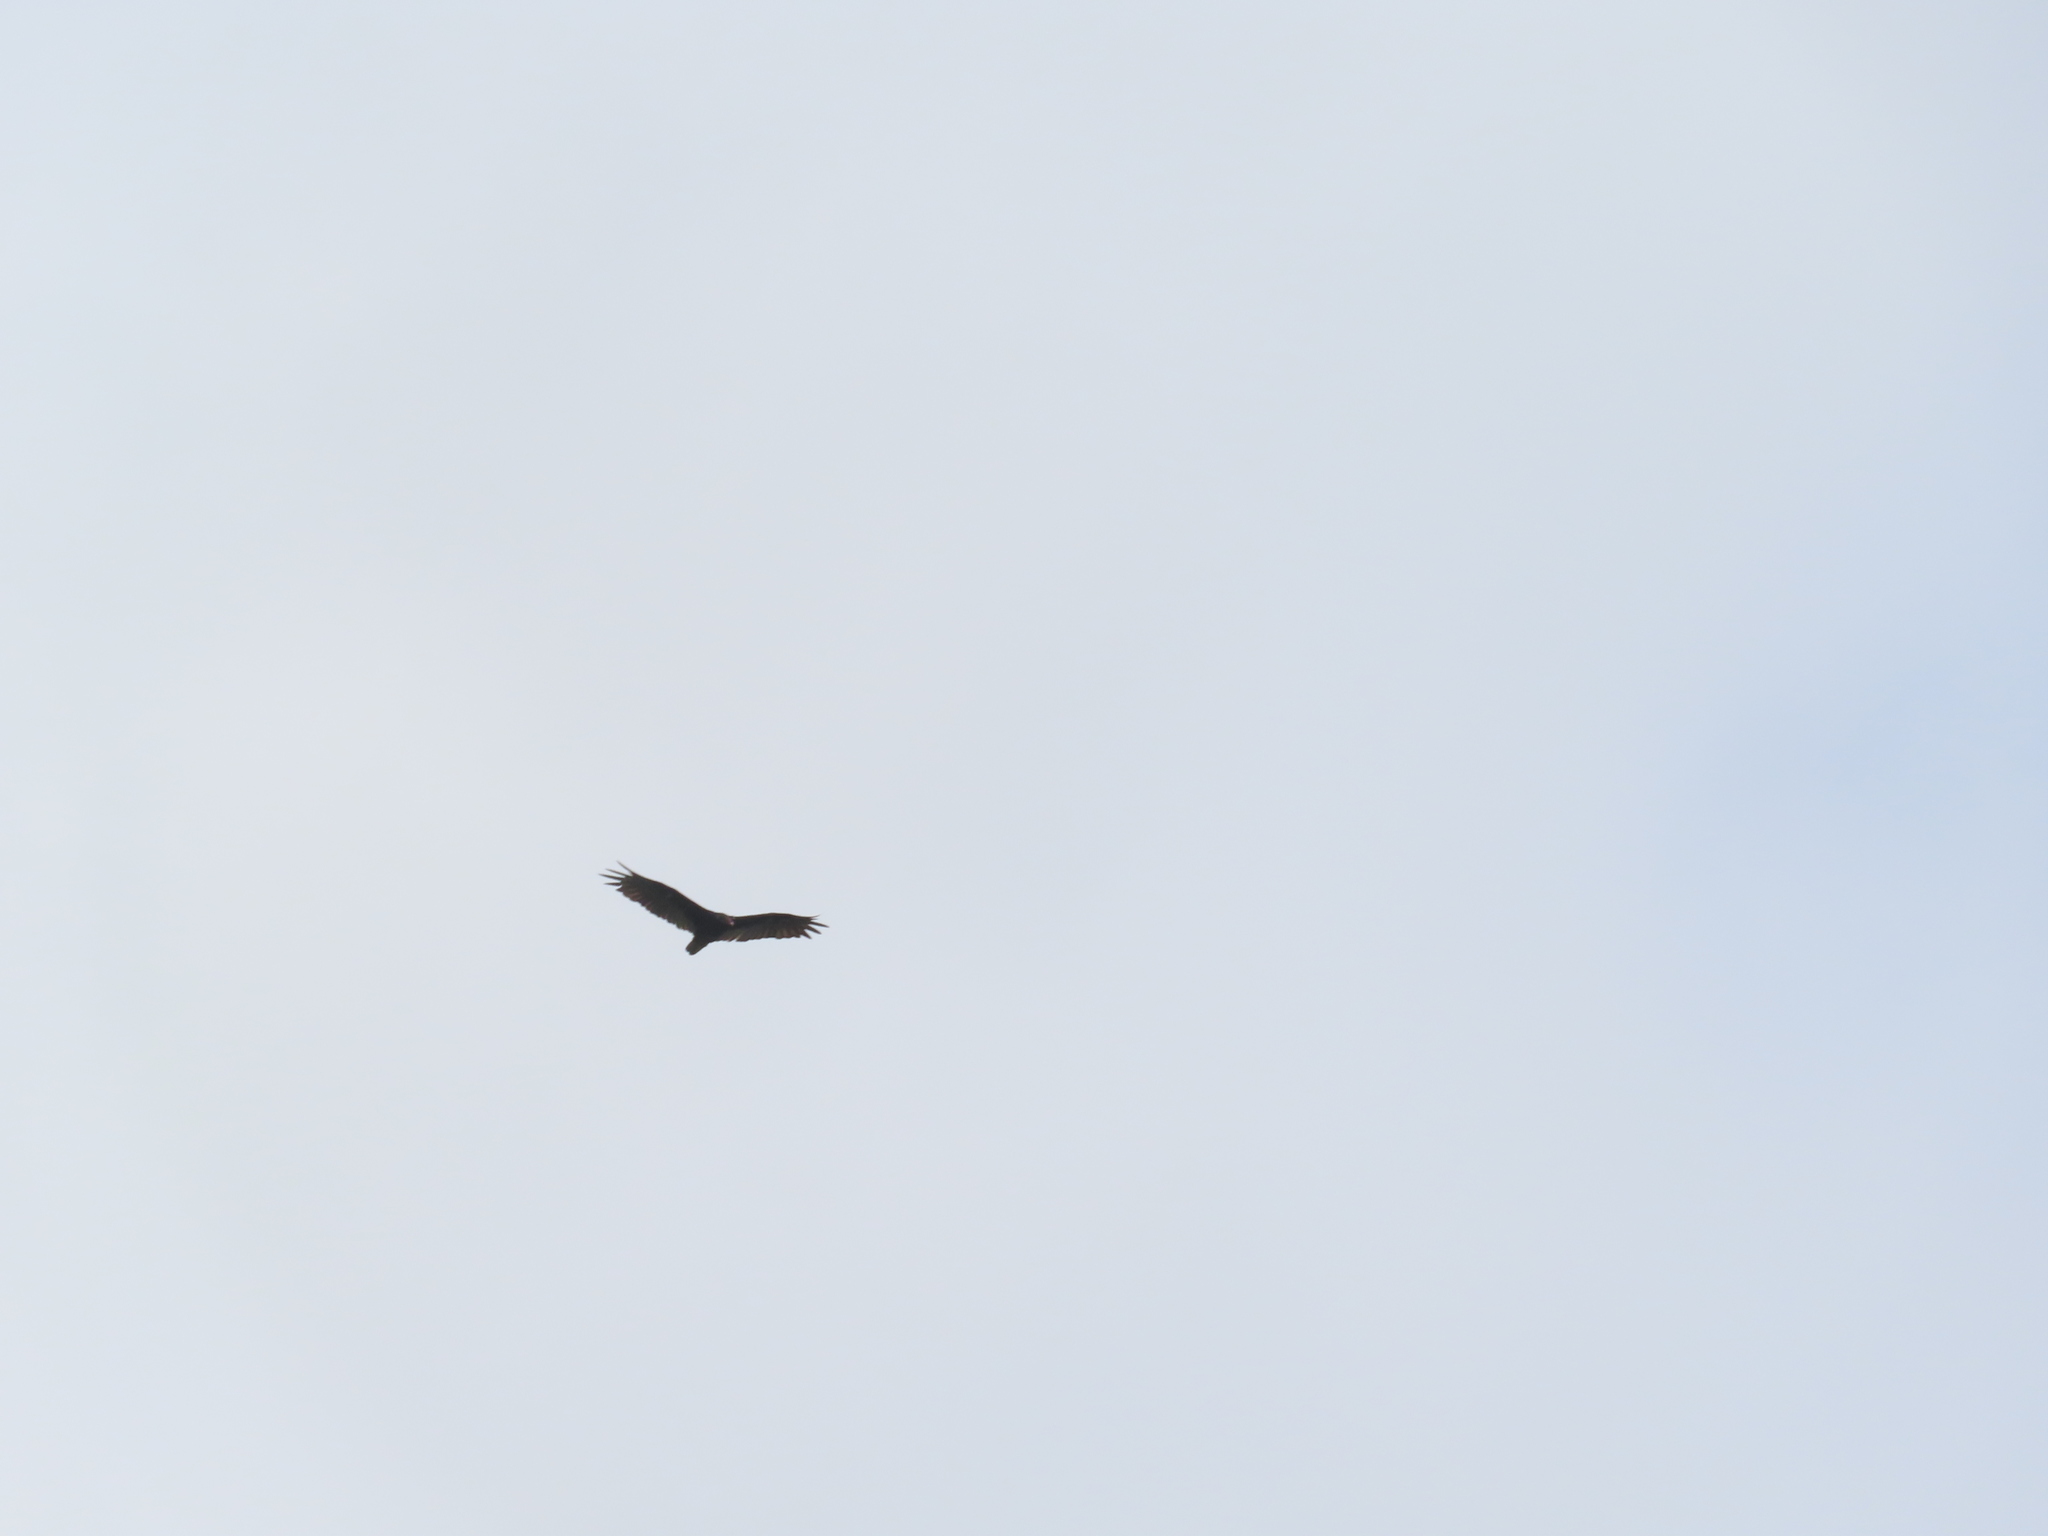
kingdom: Animalia
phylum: Chordata
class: Aves
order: Accipitriformes
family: Cathartidae
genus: Cathartes
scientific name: Cathartes aura
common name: Turkey vulture
